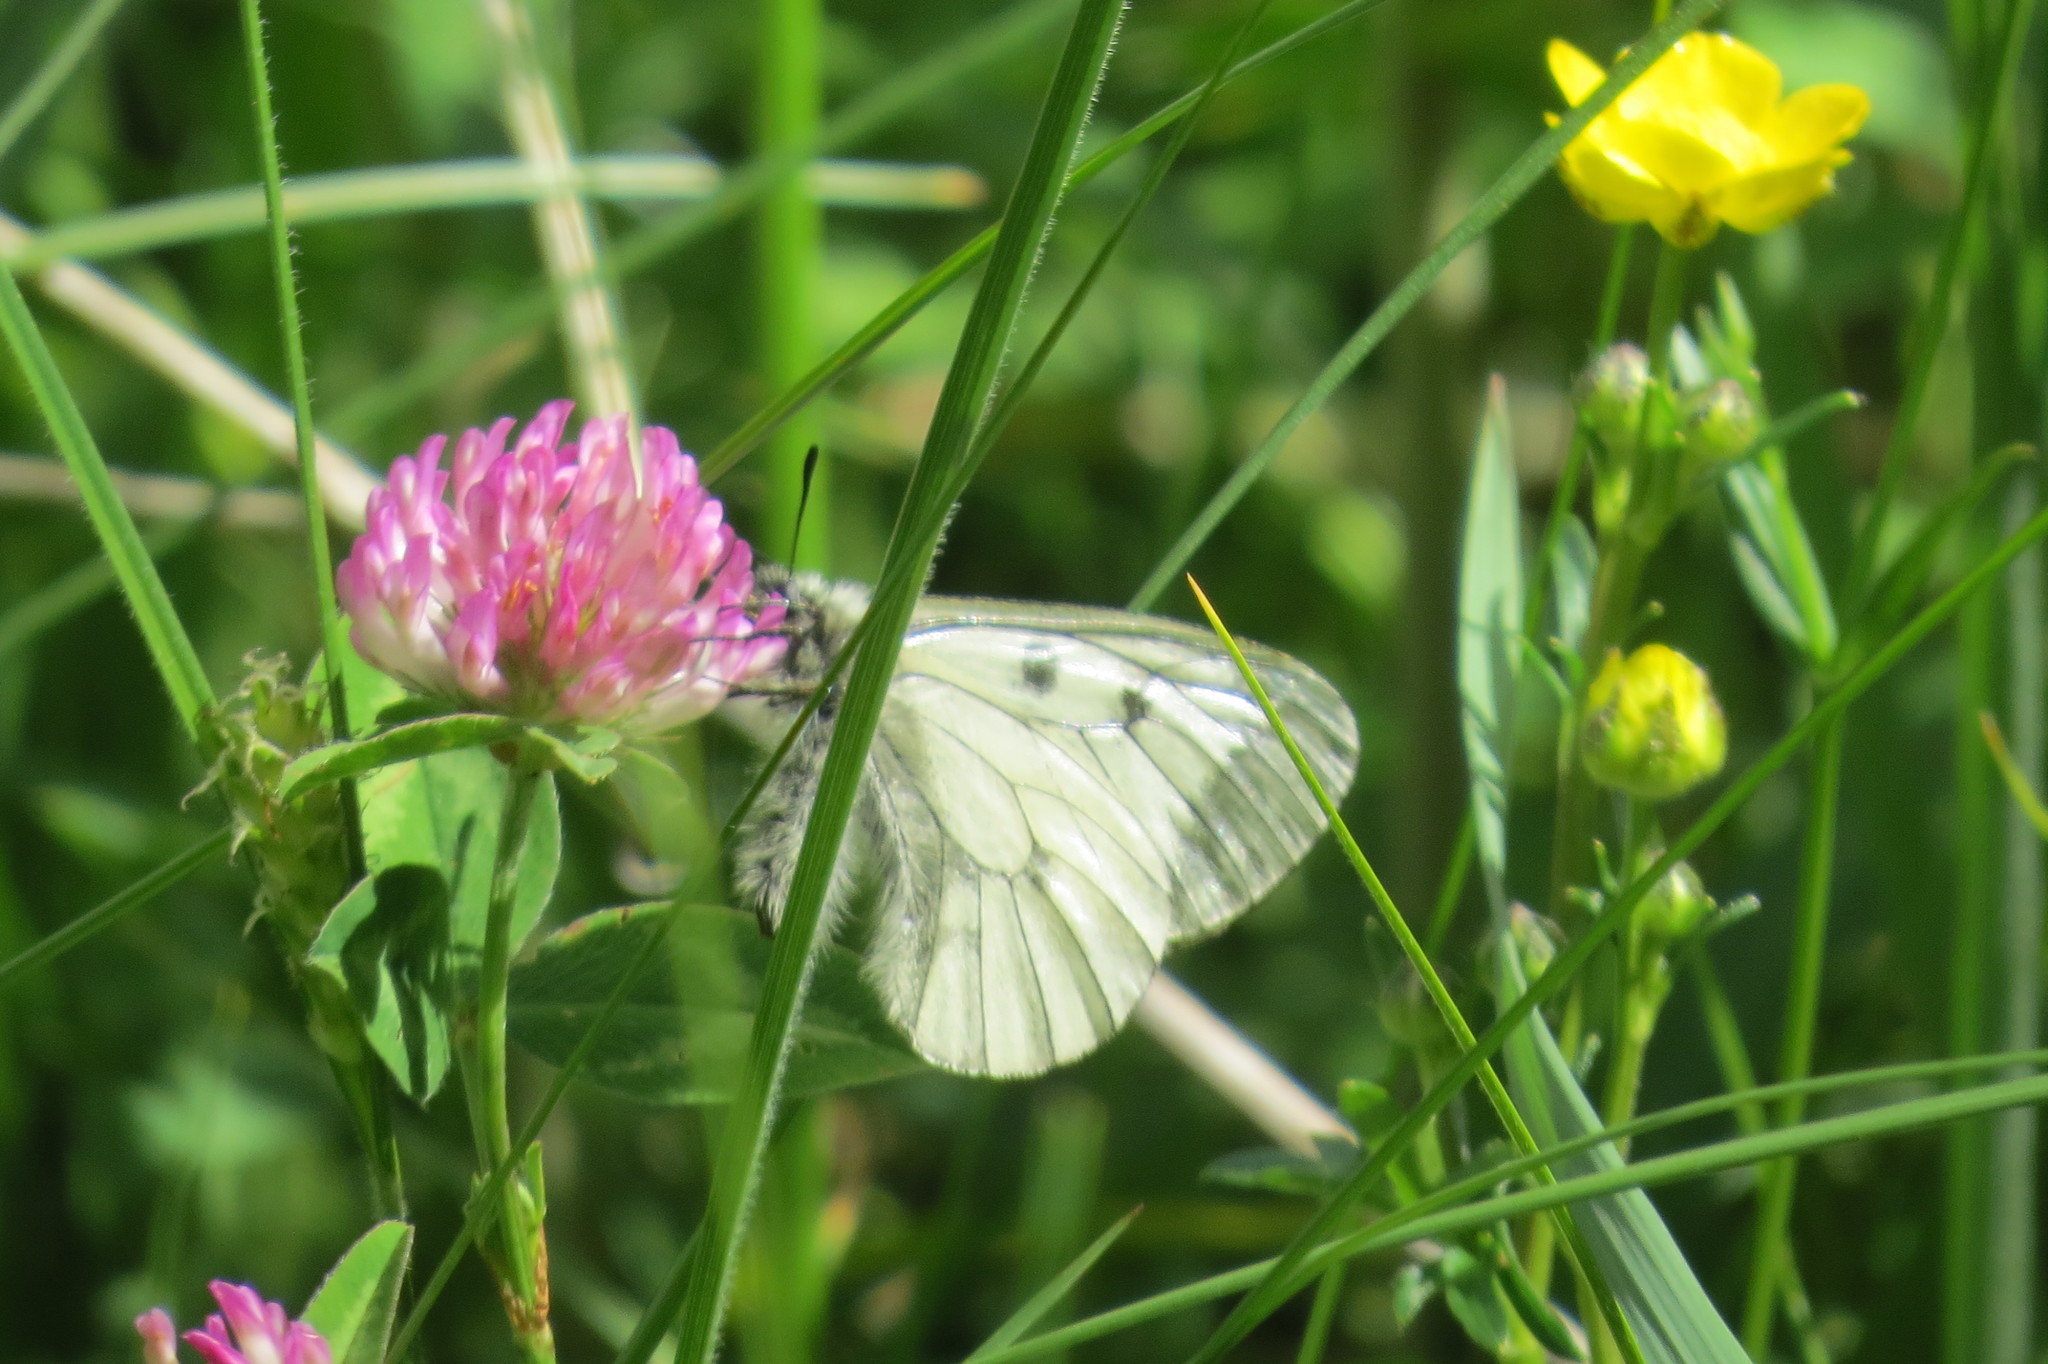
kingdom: Animalia
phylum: Arthropoda
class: Insecta
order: Lepidoptera
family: Papilionidae
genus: Parnassius
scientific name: Parnassius mnemosyne
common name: Clouded apollo
